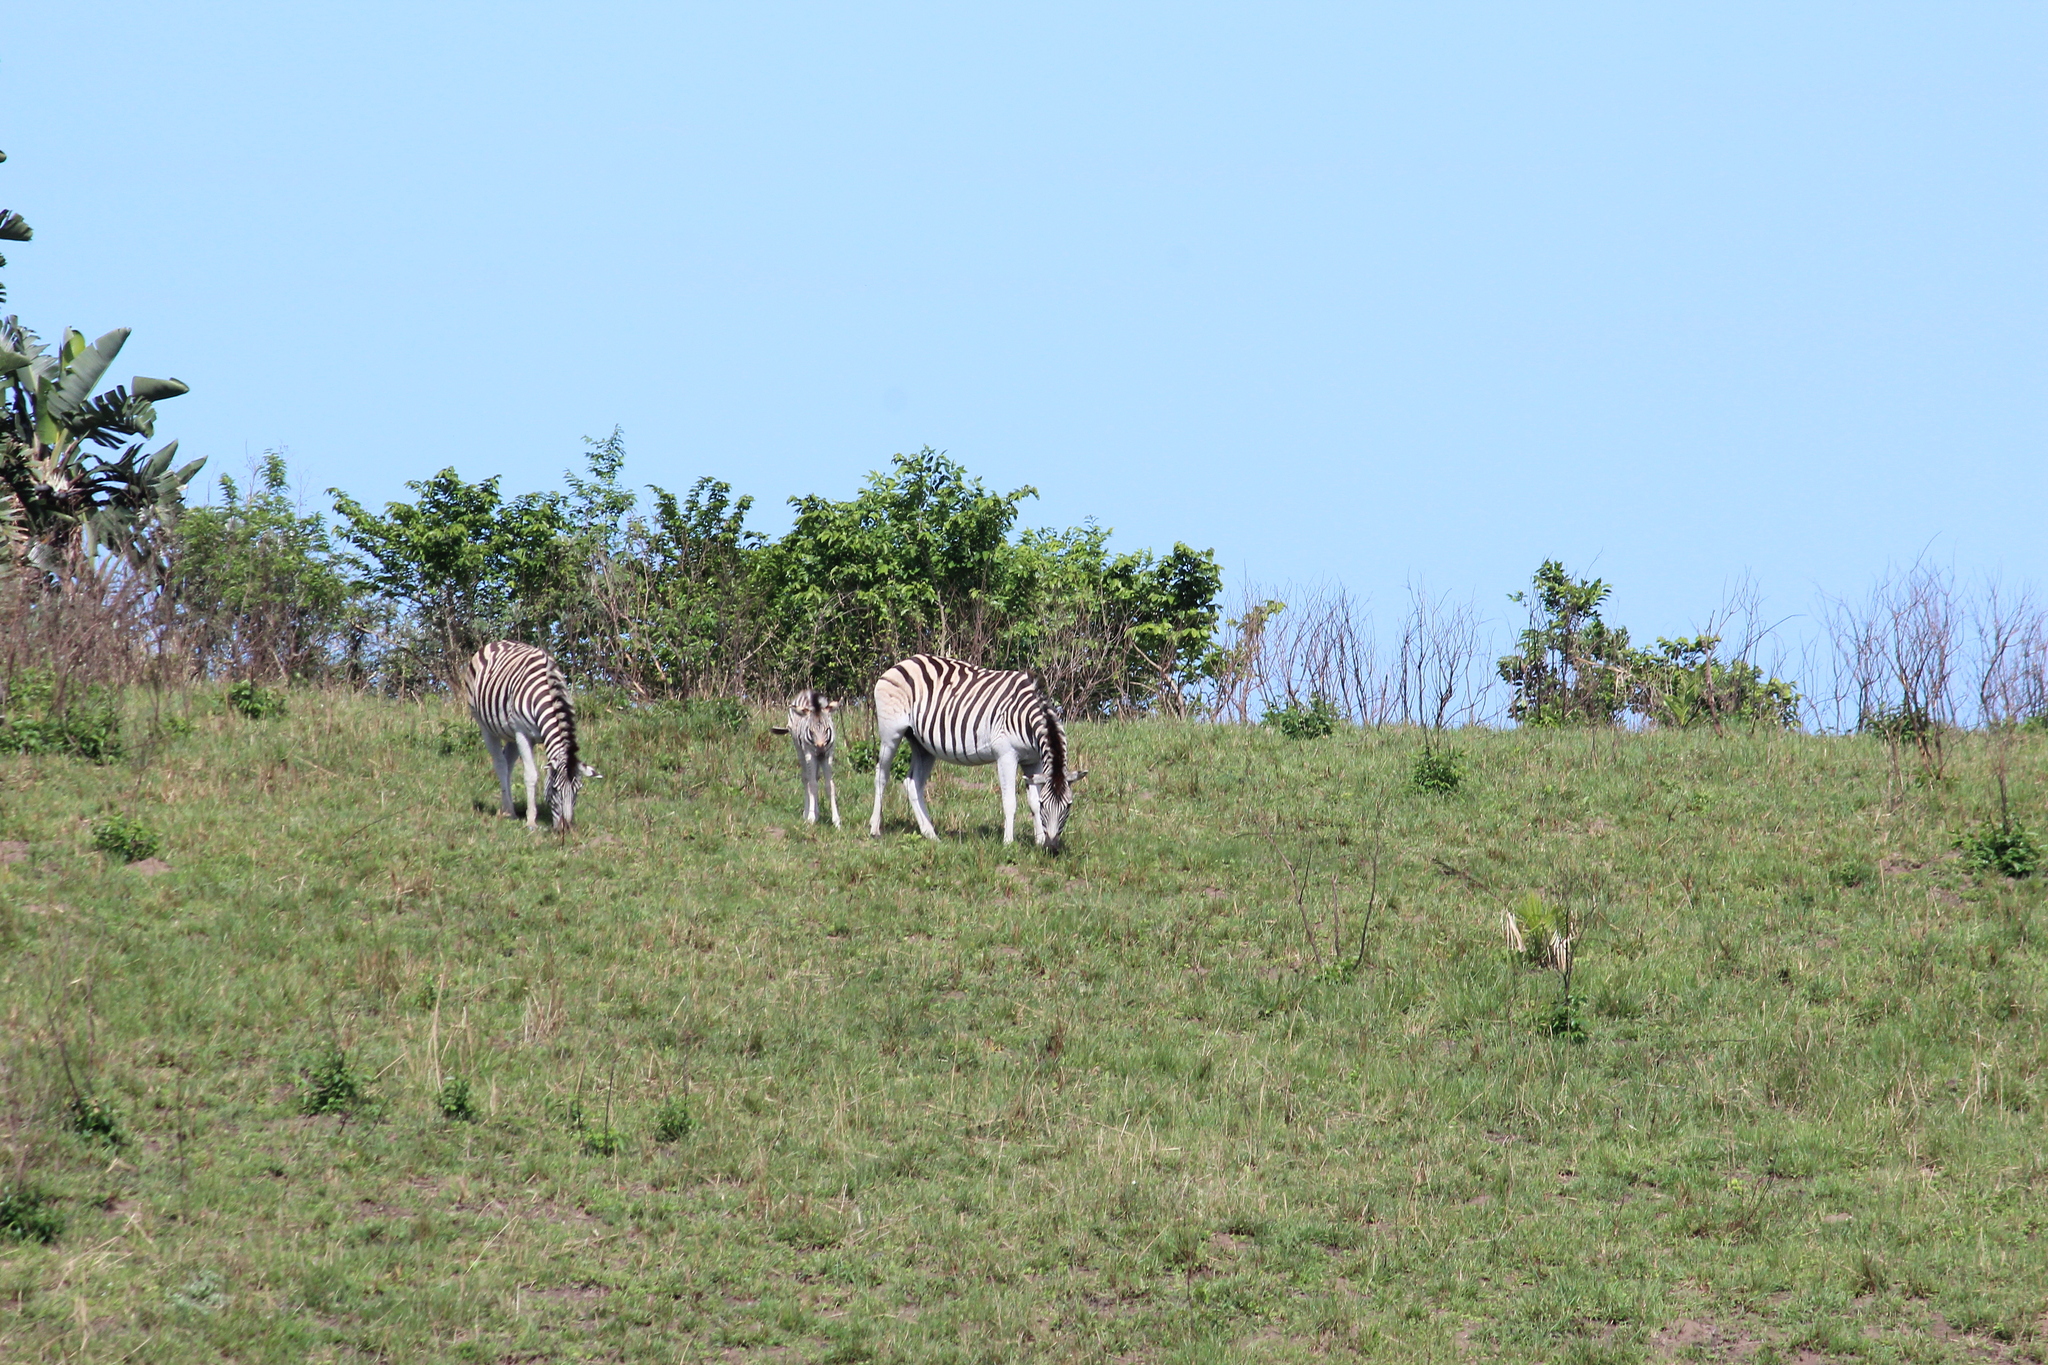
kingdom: Animalia
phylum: Chordata
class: Mammalia
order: Perissodactyla
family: Equidae
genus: Equus
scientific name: Equus quagga
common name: Plains zebra
